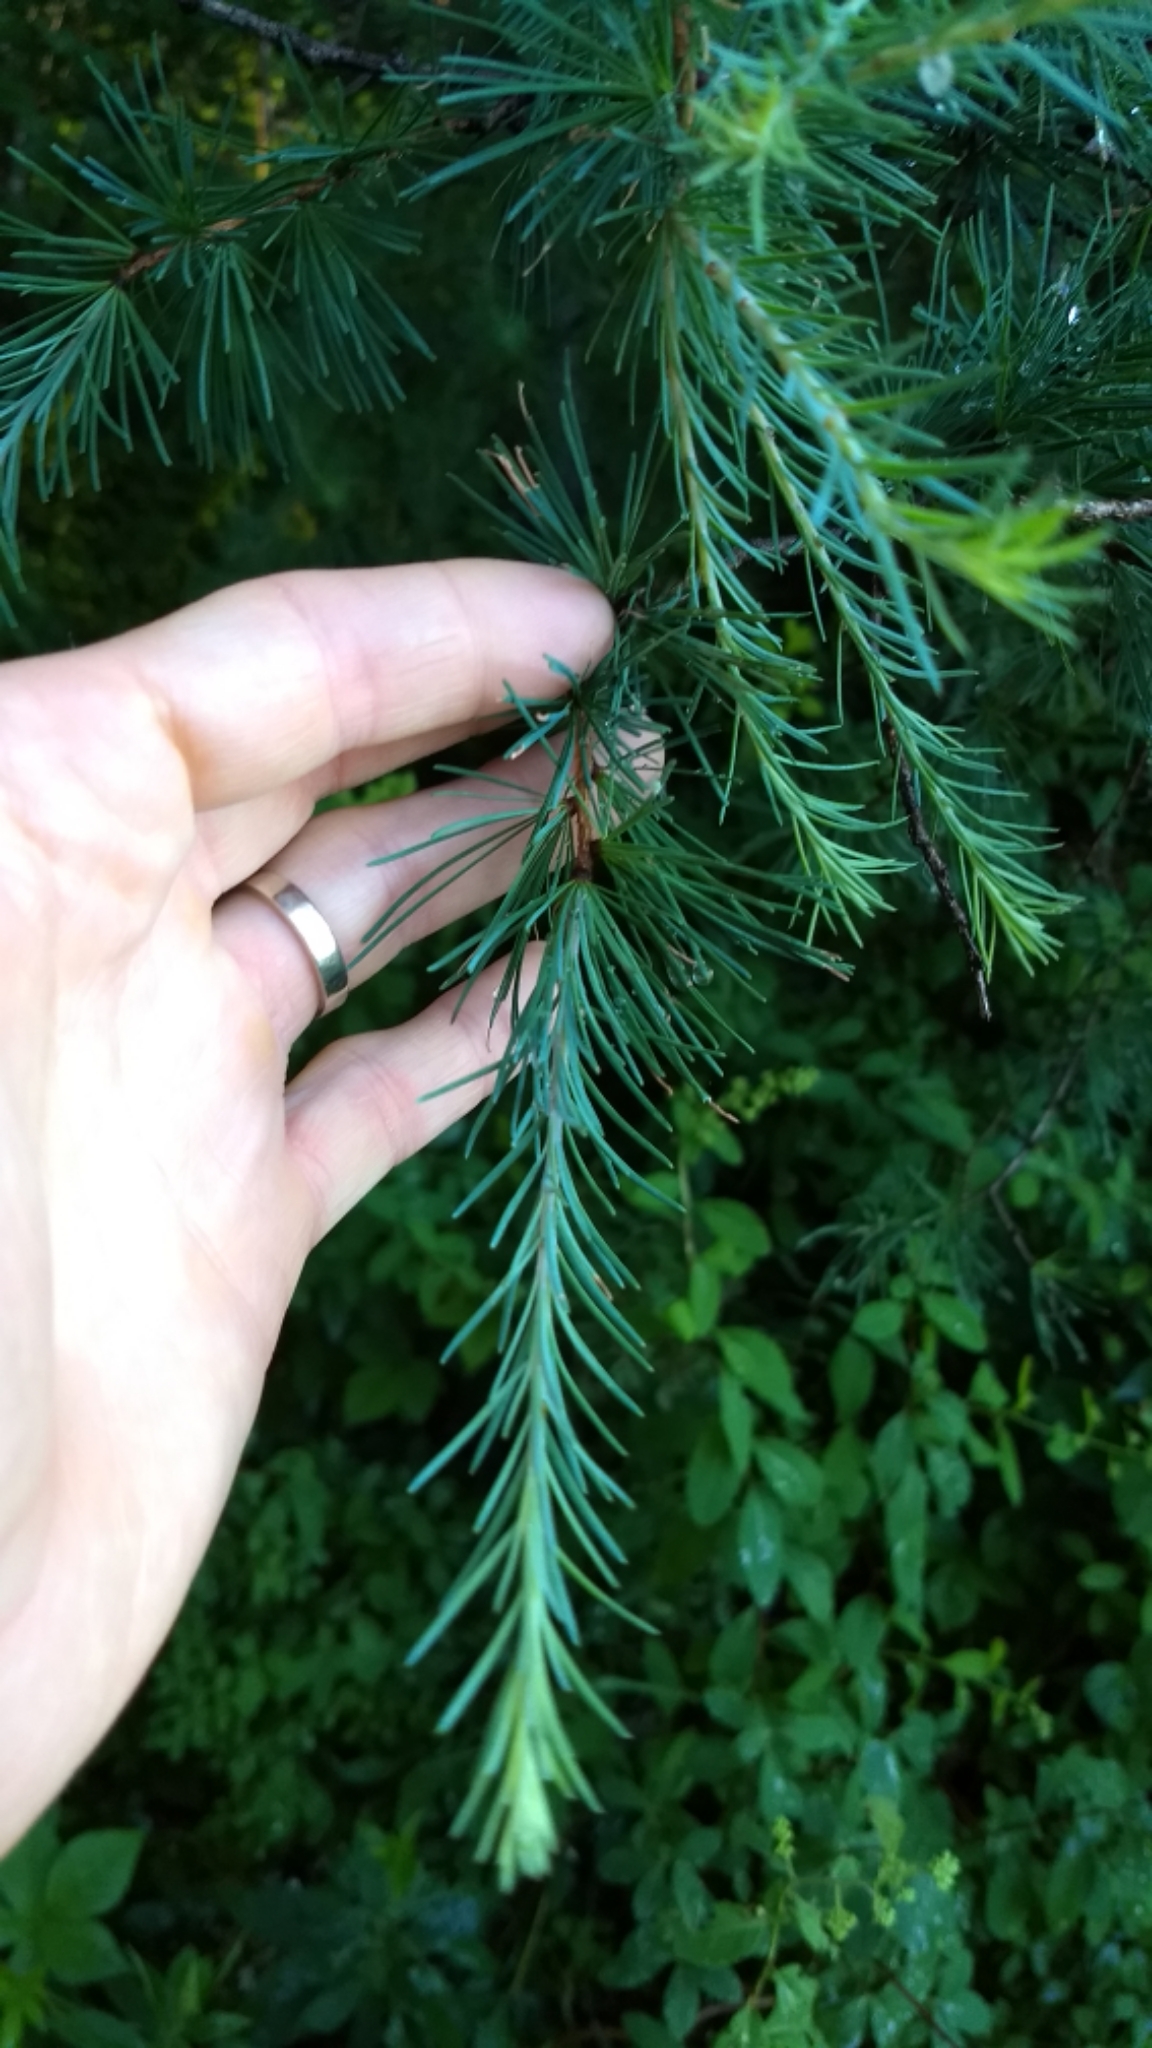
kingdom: Plantae
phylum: Tracheophyta
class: Pinopsida
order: Pinales
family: Pinaceae
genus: Larix
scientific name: Larix laricina
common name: American larch
